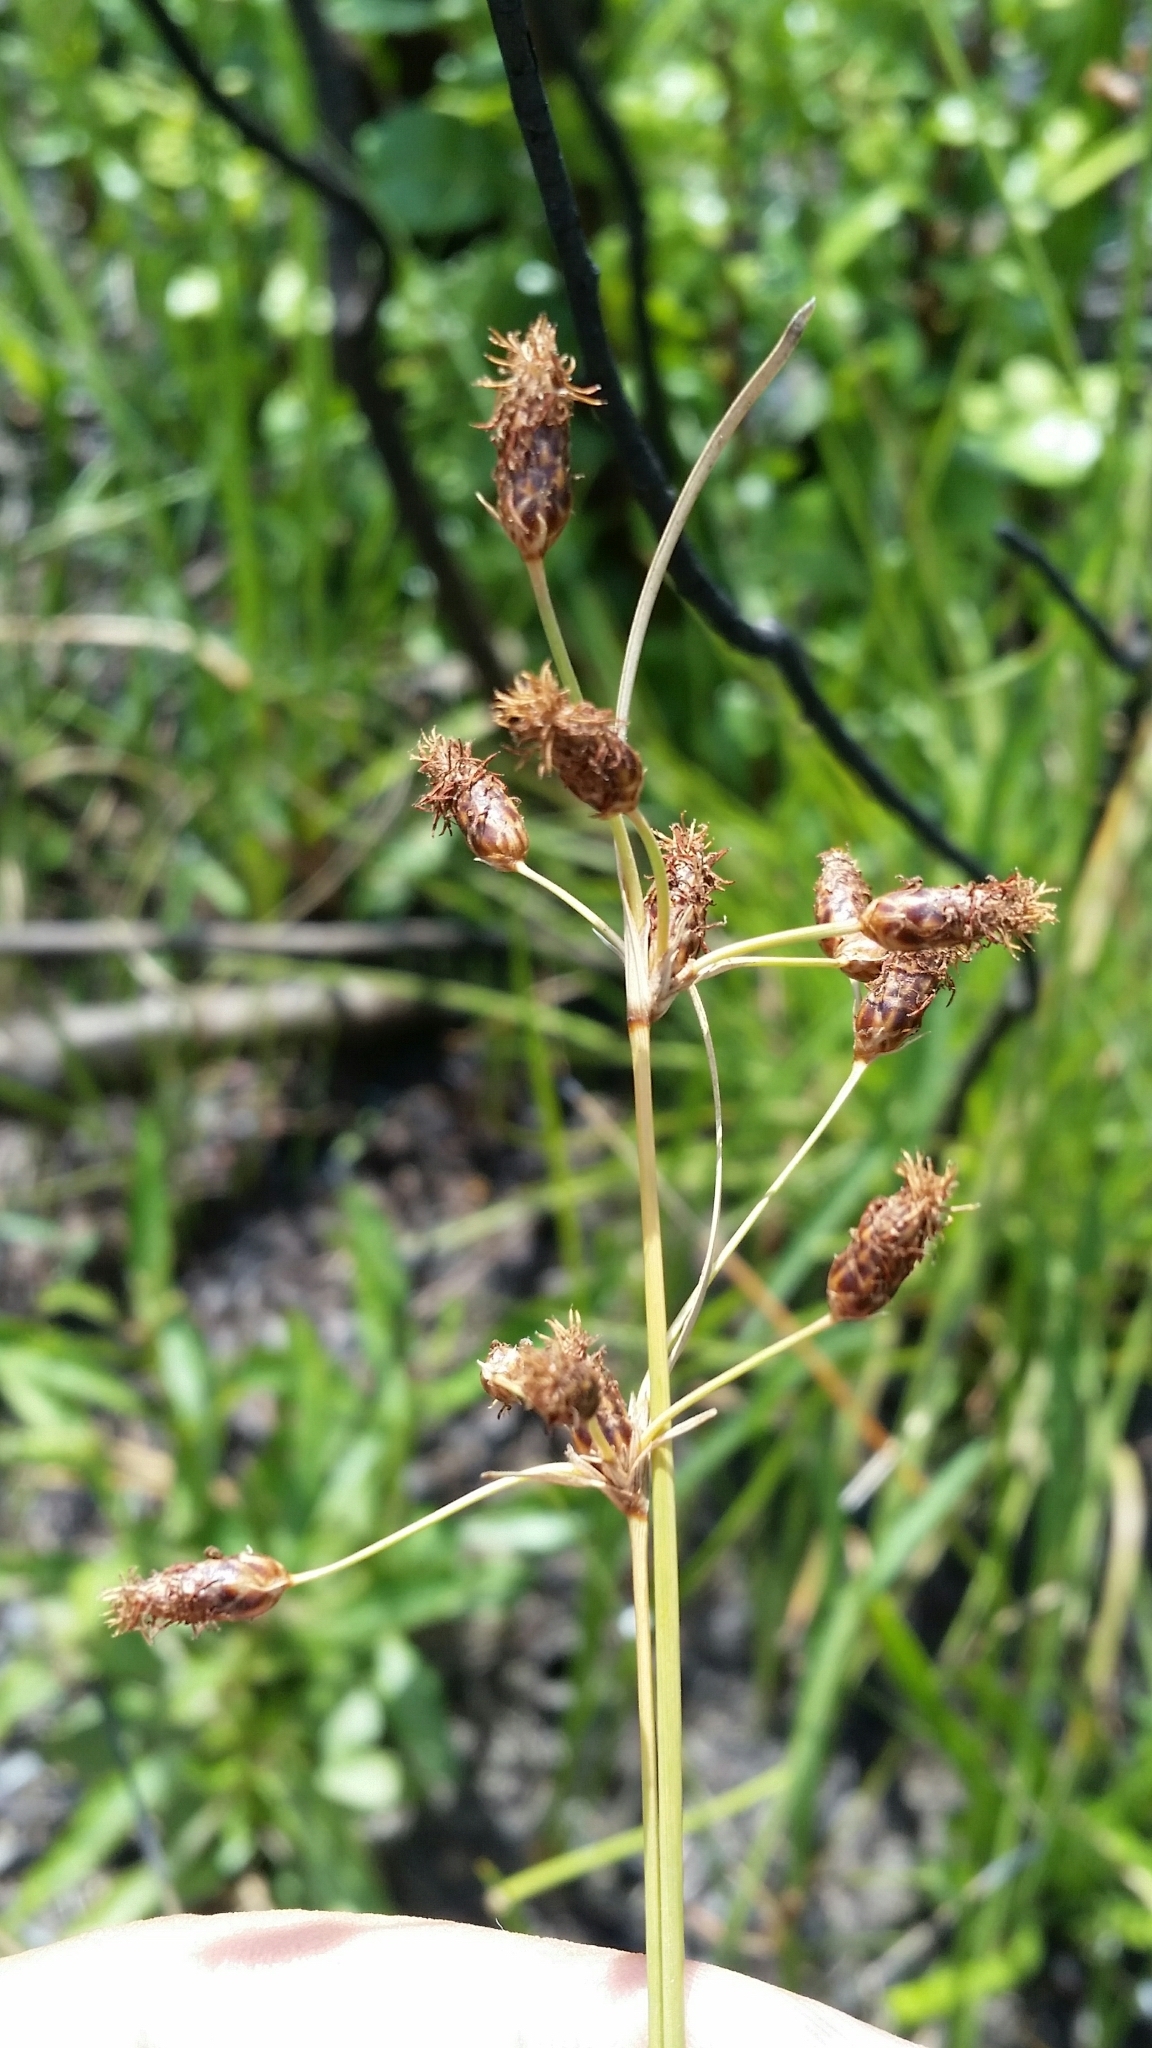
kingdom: Plantae
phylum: Tracheophyta
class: Liliopsida
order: Poales
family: Cyperaceae
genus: Fimbristylis
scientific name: Fimbristylis spadicea
